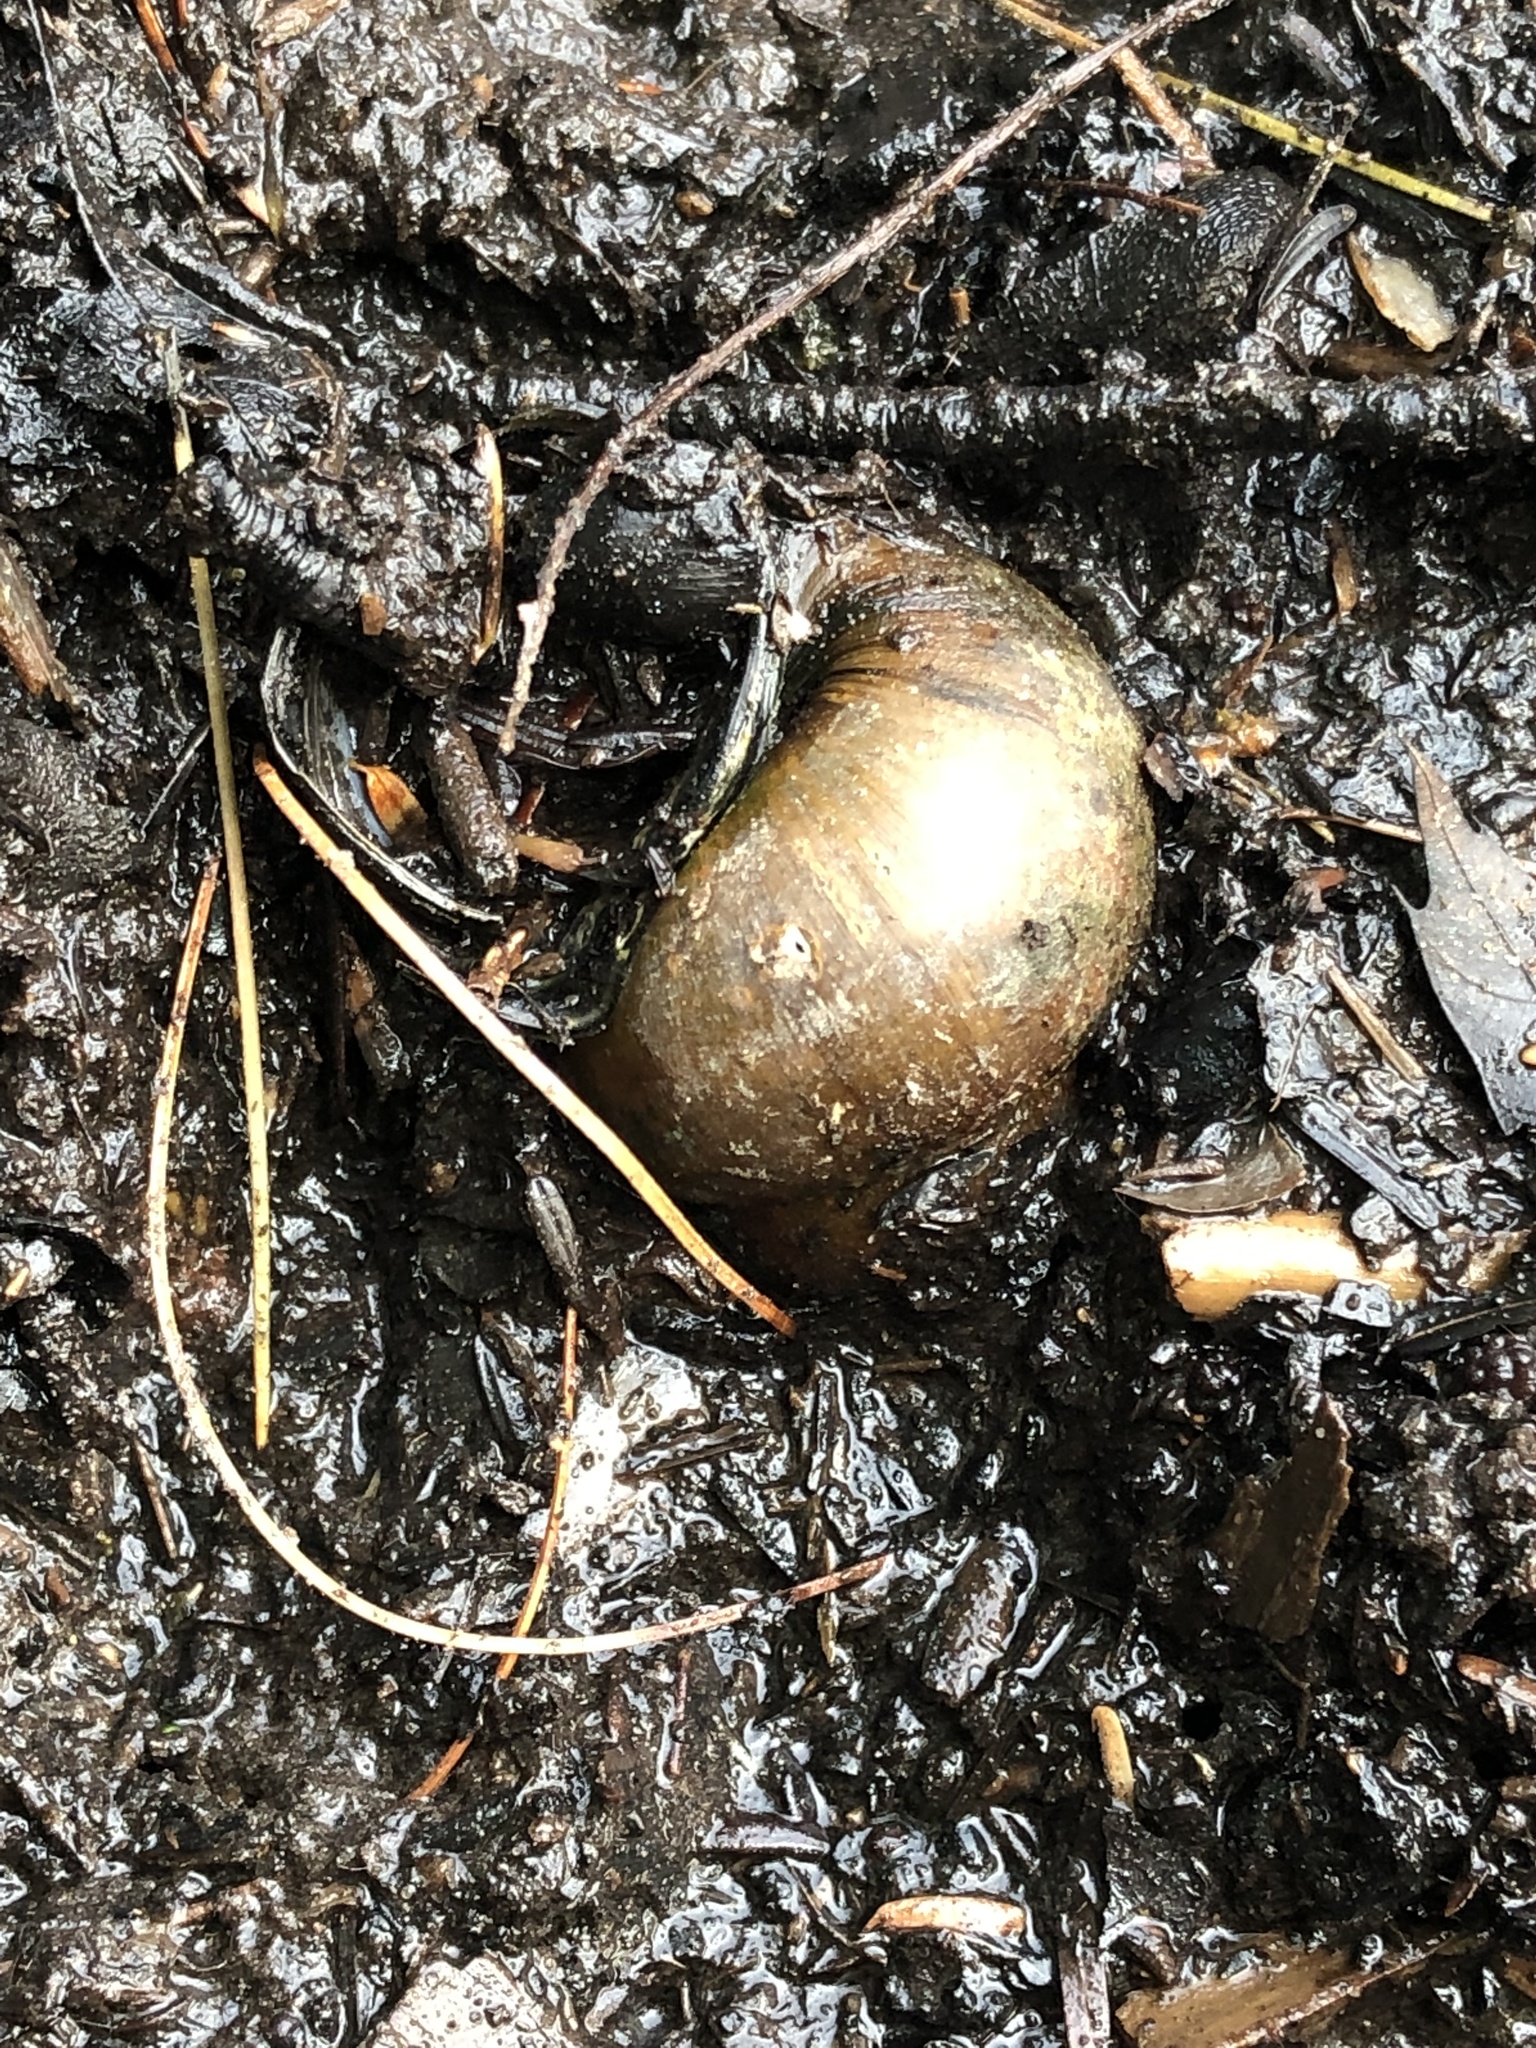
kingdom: Animalia
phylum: Mollusca
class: Gastropoda
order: Architaenioglossa
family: Viviparidae
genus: Cipangopaludina
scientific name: Cipangopaludina chinensis
